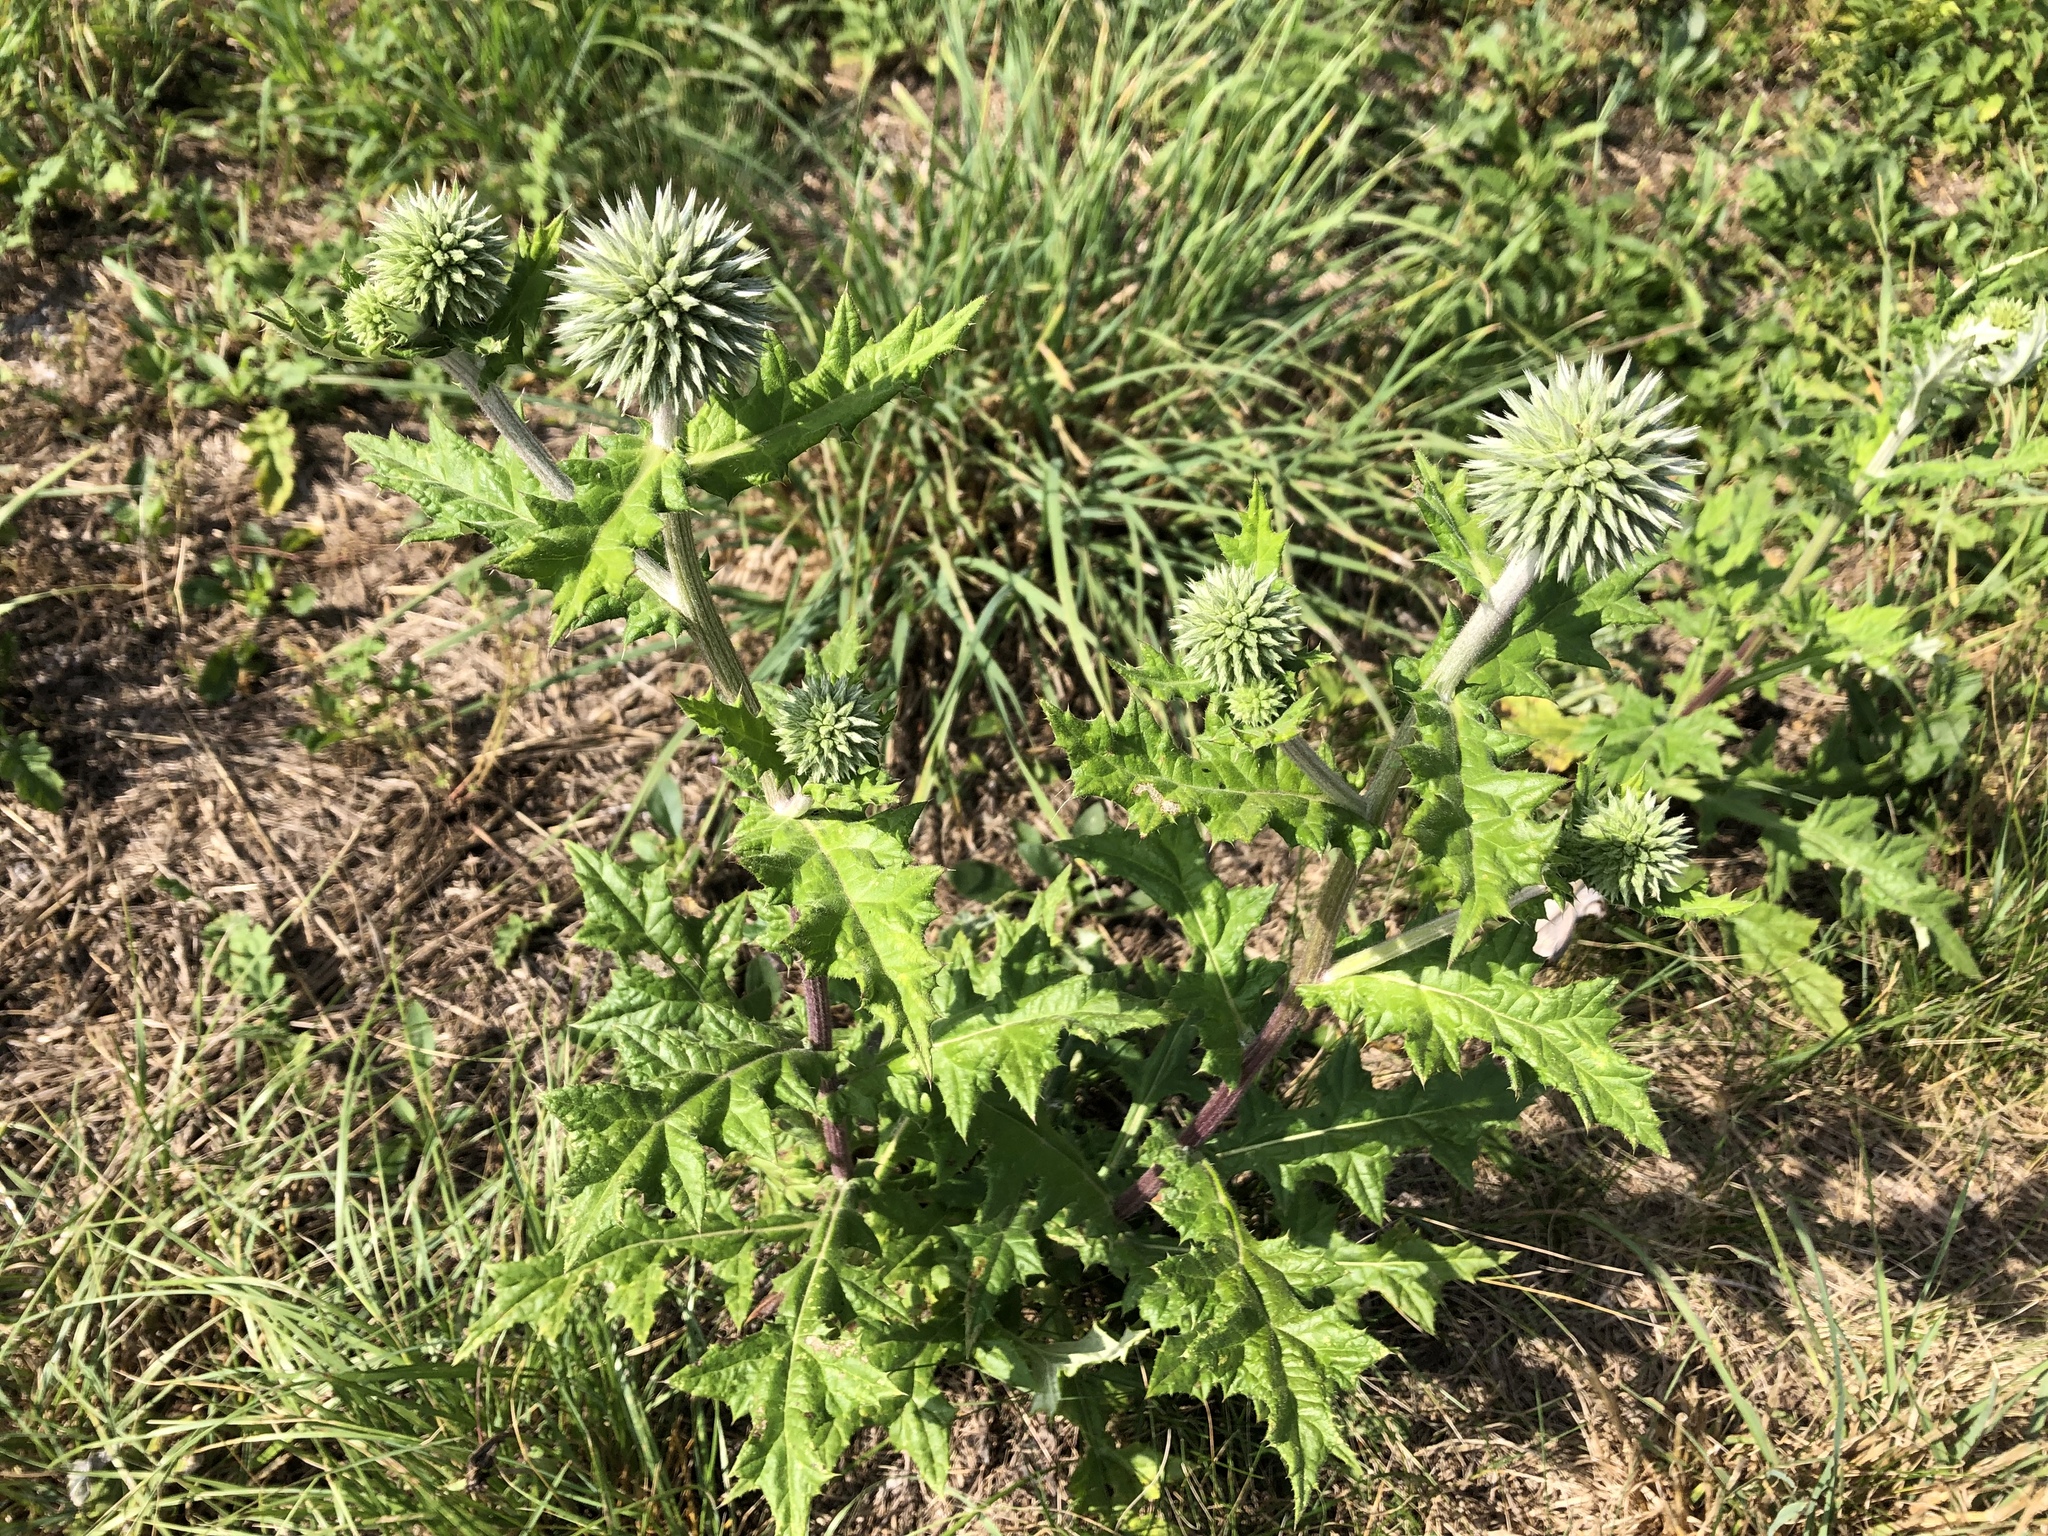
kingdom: Plantae
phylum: Tracheophyta
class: Magnoliopsida
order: Asterales
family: Asteraceae
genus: Echinops
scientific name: Echinops sphaerocephalus
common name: Glandular globe-thistle
